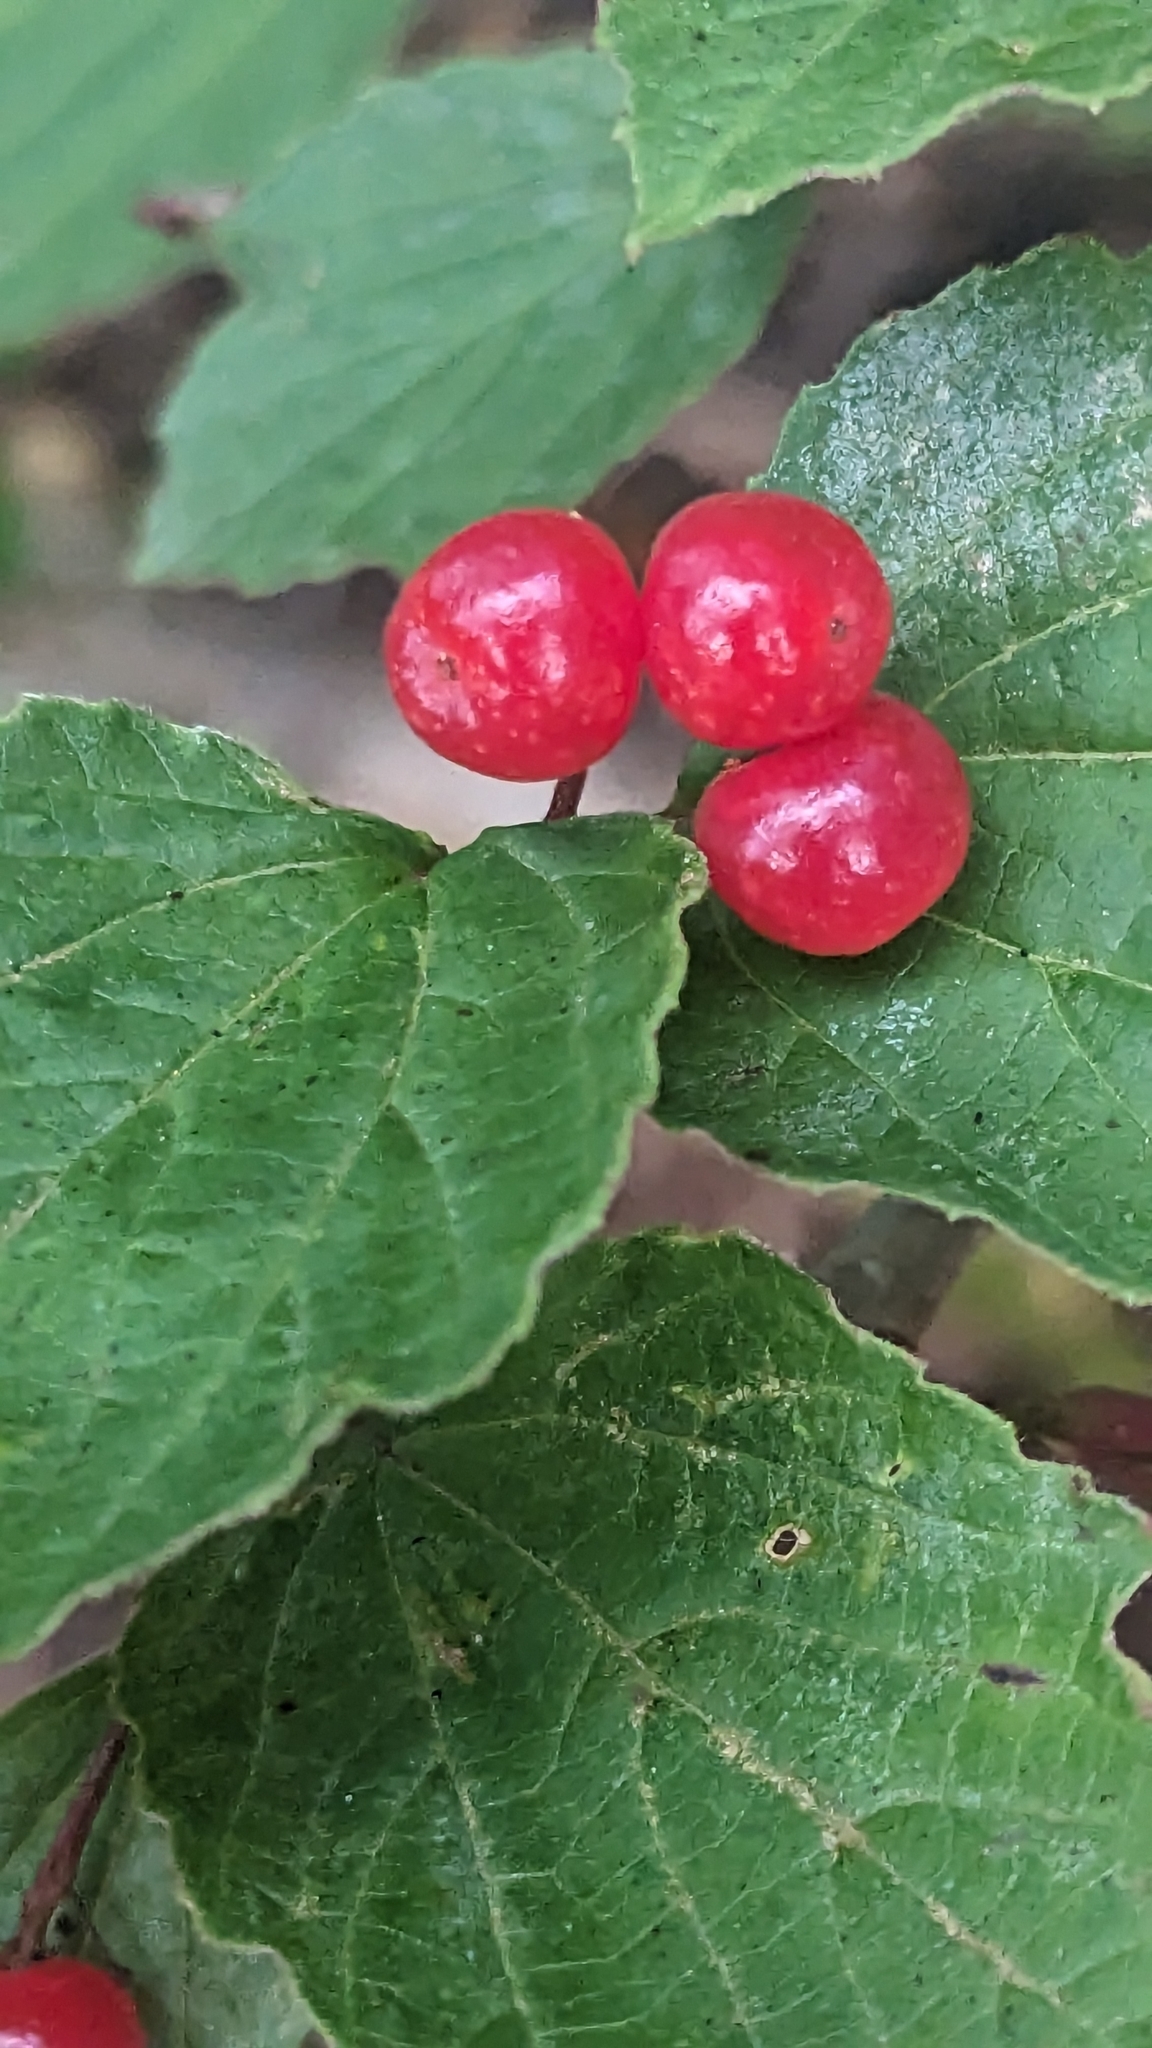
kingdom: Plantae
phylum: Tracheophyta
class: Magnoliopsida
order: Dipsacales
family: Viburnaceae
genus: Viburnum
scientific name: Viburnum edule
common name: Mooseberry
